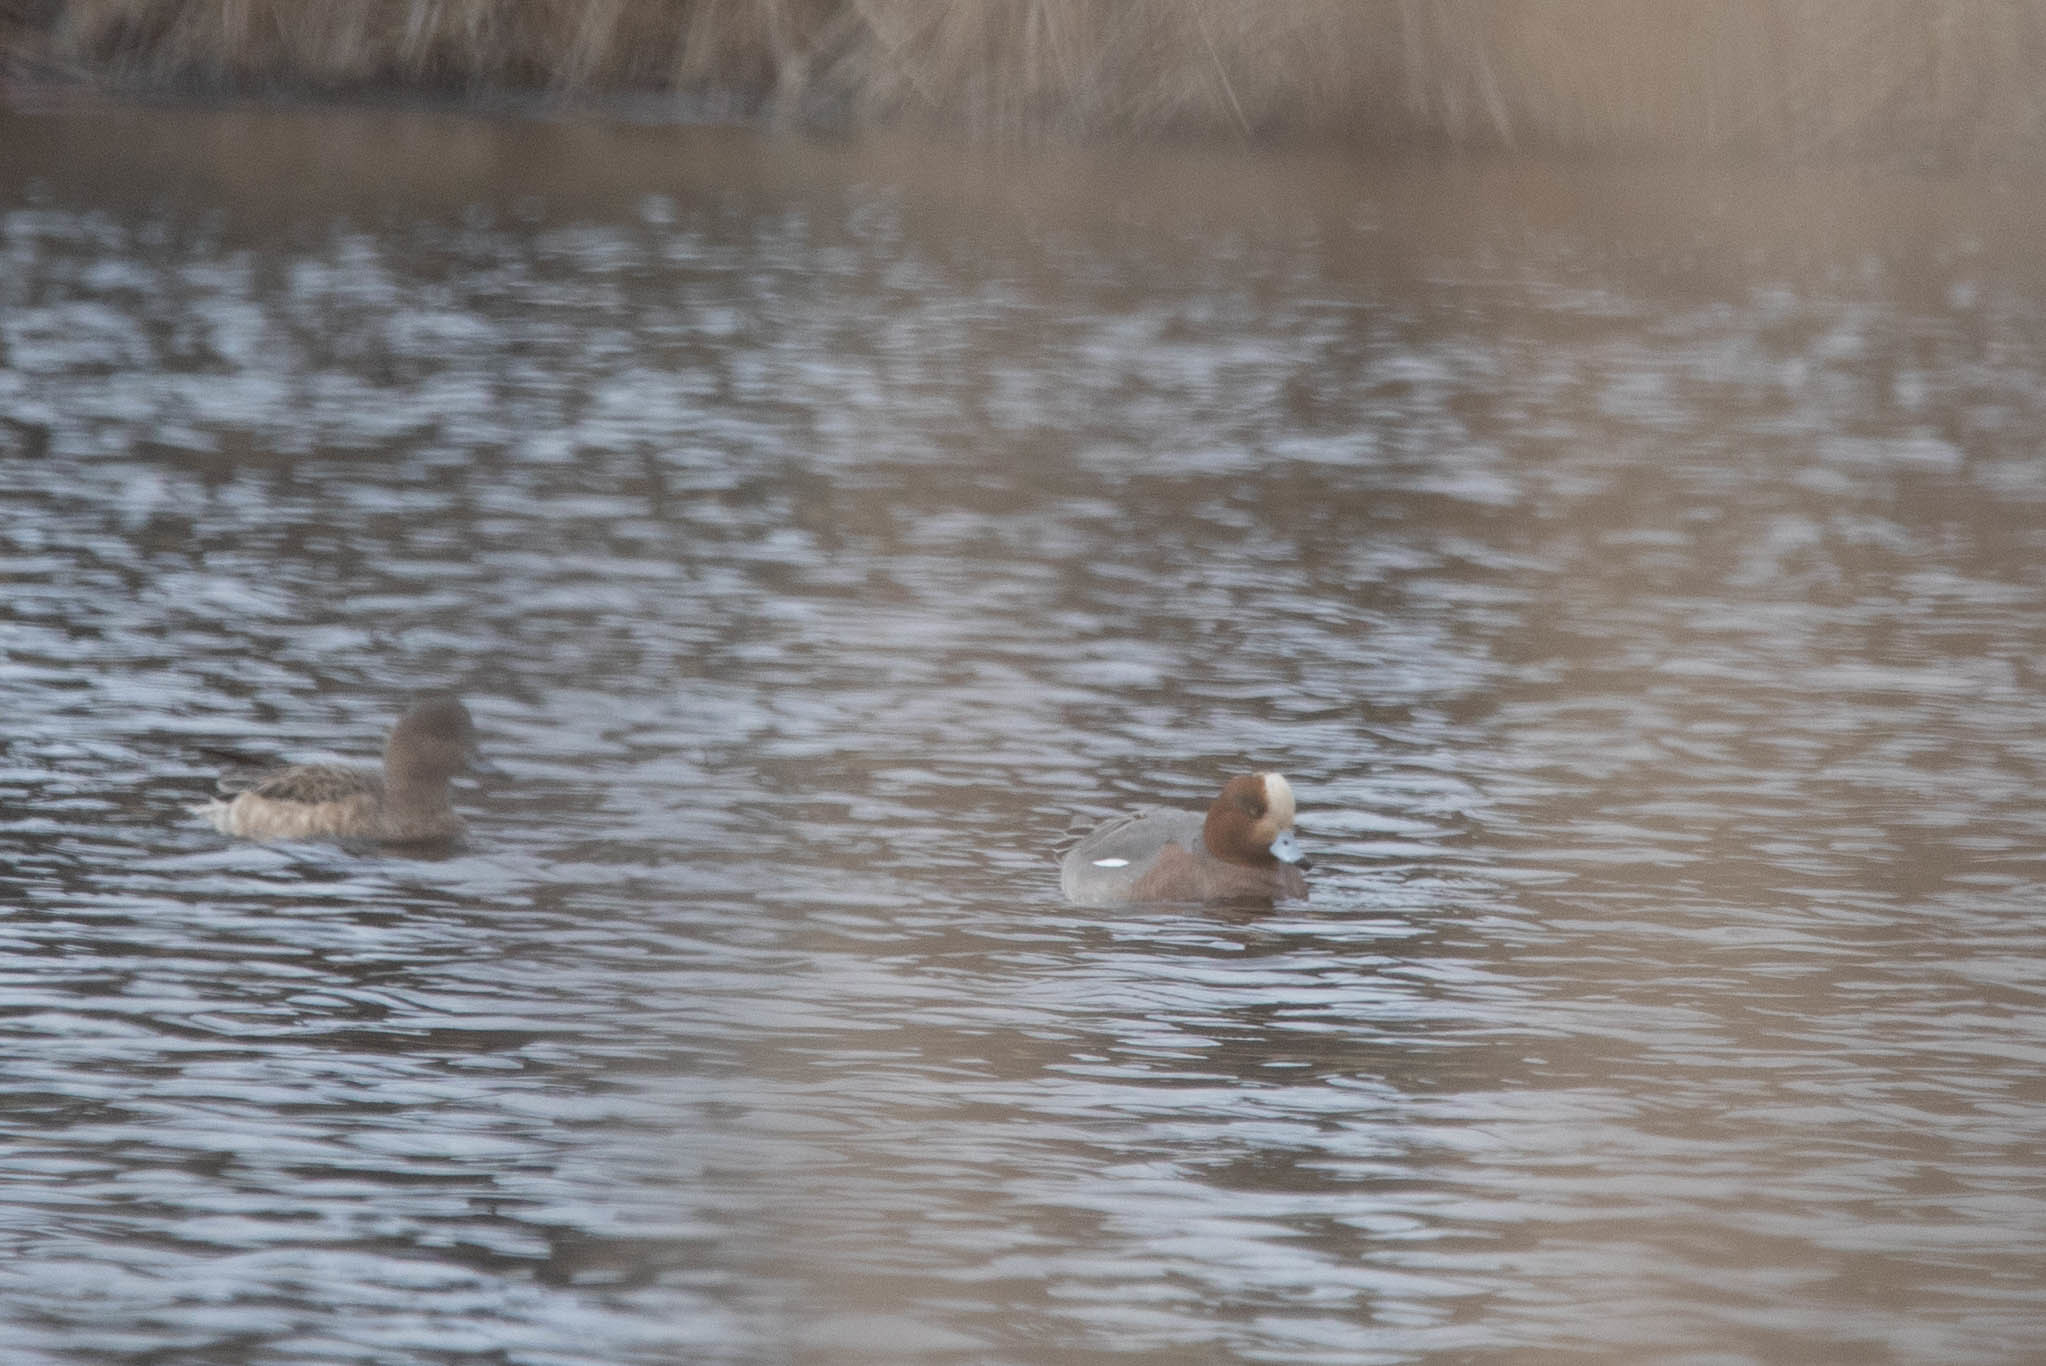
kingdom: Animalia
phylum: Chordata
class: Aves
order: Anseriformes
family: Anatidae
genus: Mareca
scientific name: Mareca penelope
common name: Eurasian wigeon
